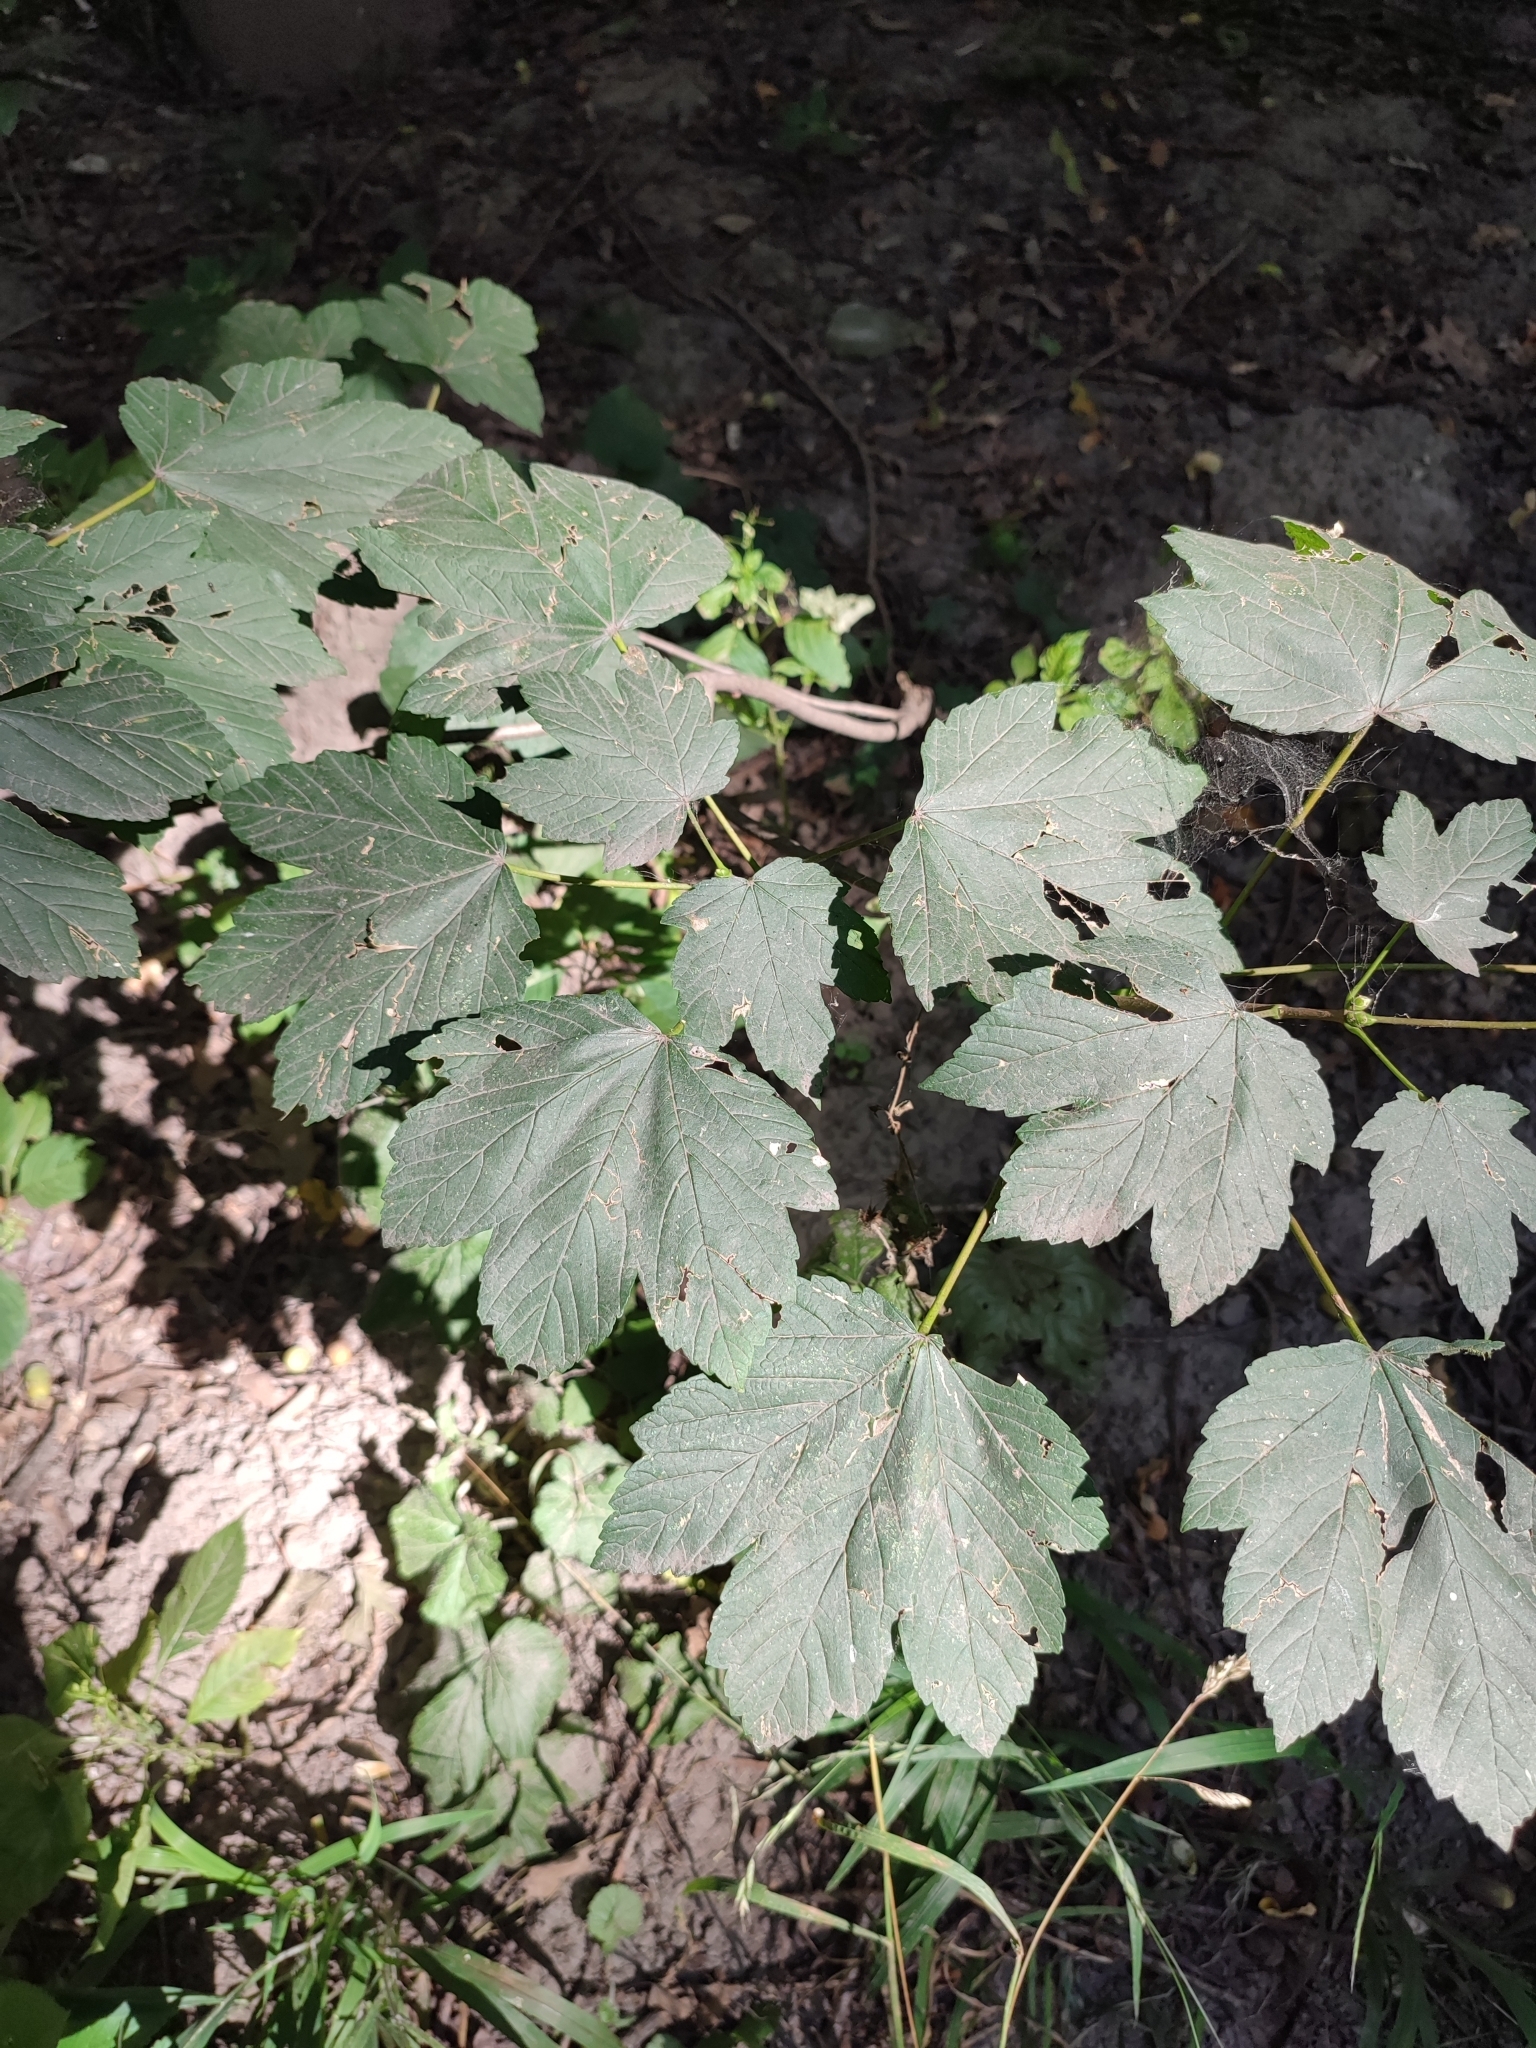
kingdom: Plantae
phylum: Tracheophyta
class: Magnoliopsida
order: Sapindales
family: Sapindaceae
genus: Acer
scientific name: Acer pseudoplatanus
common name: Sycamore
